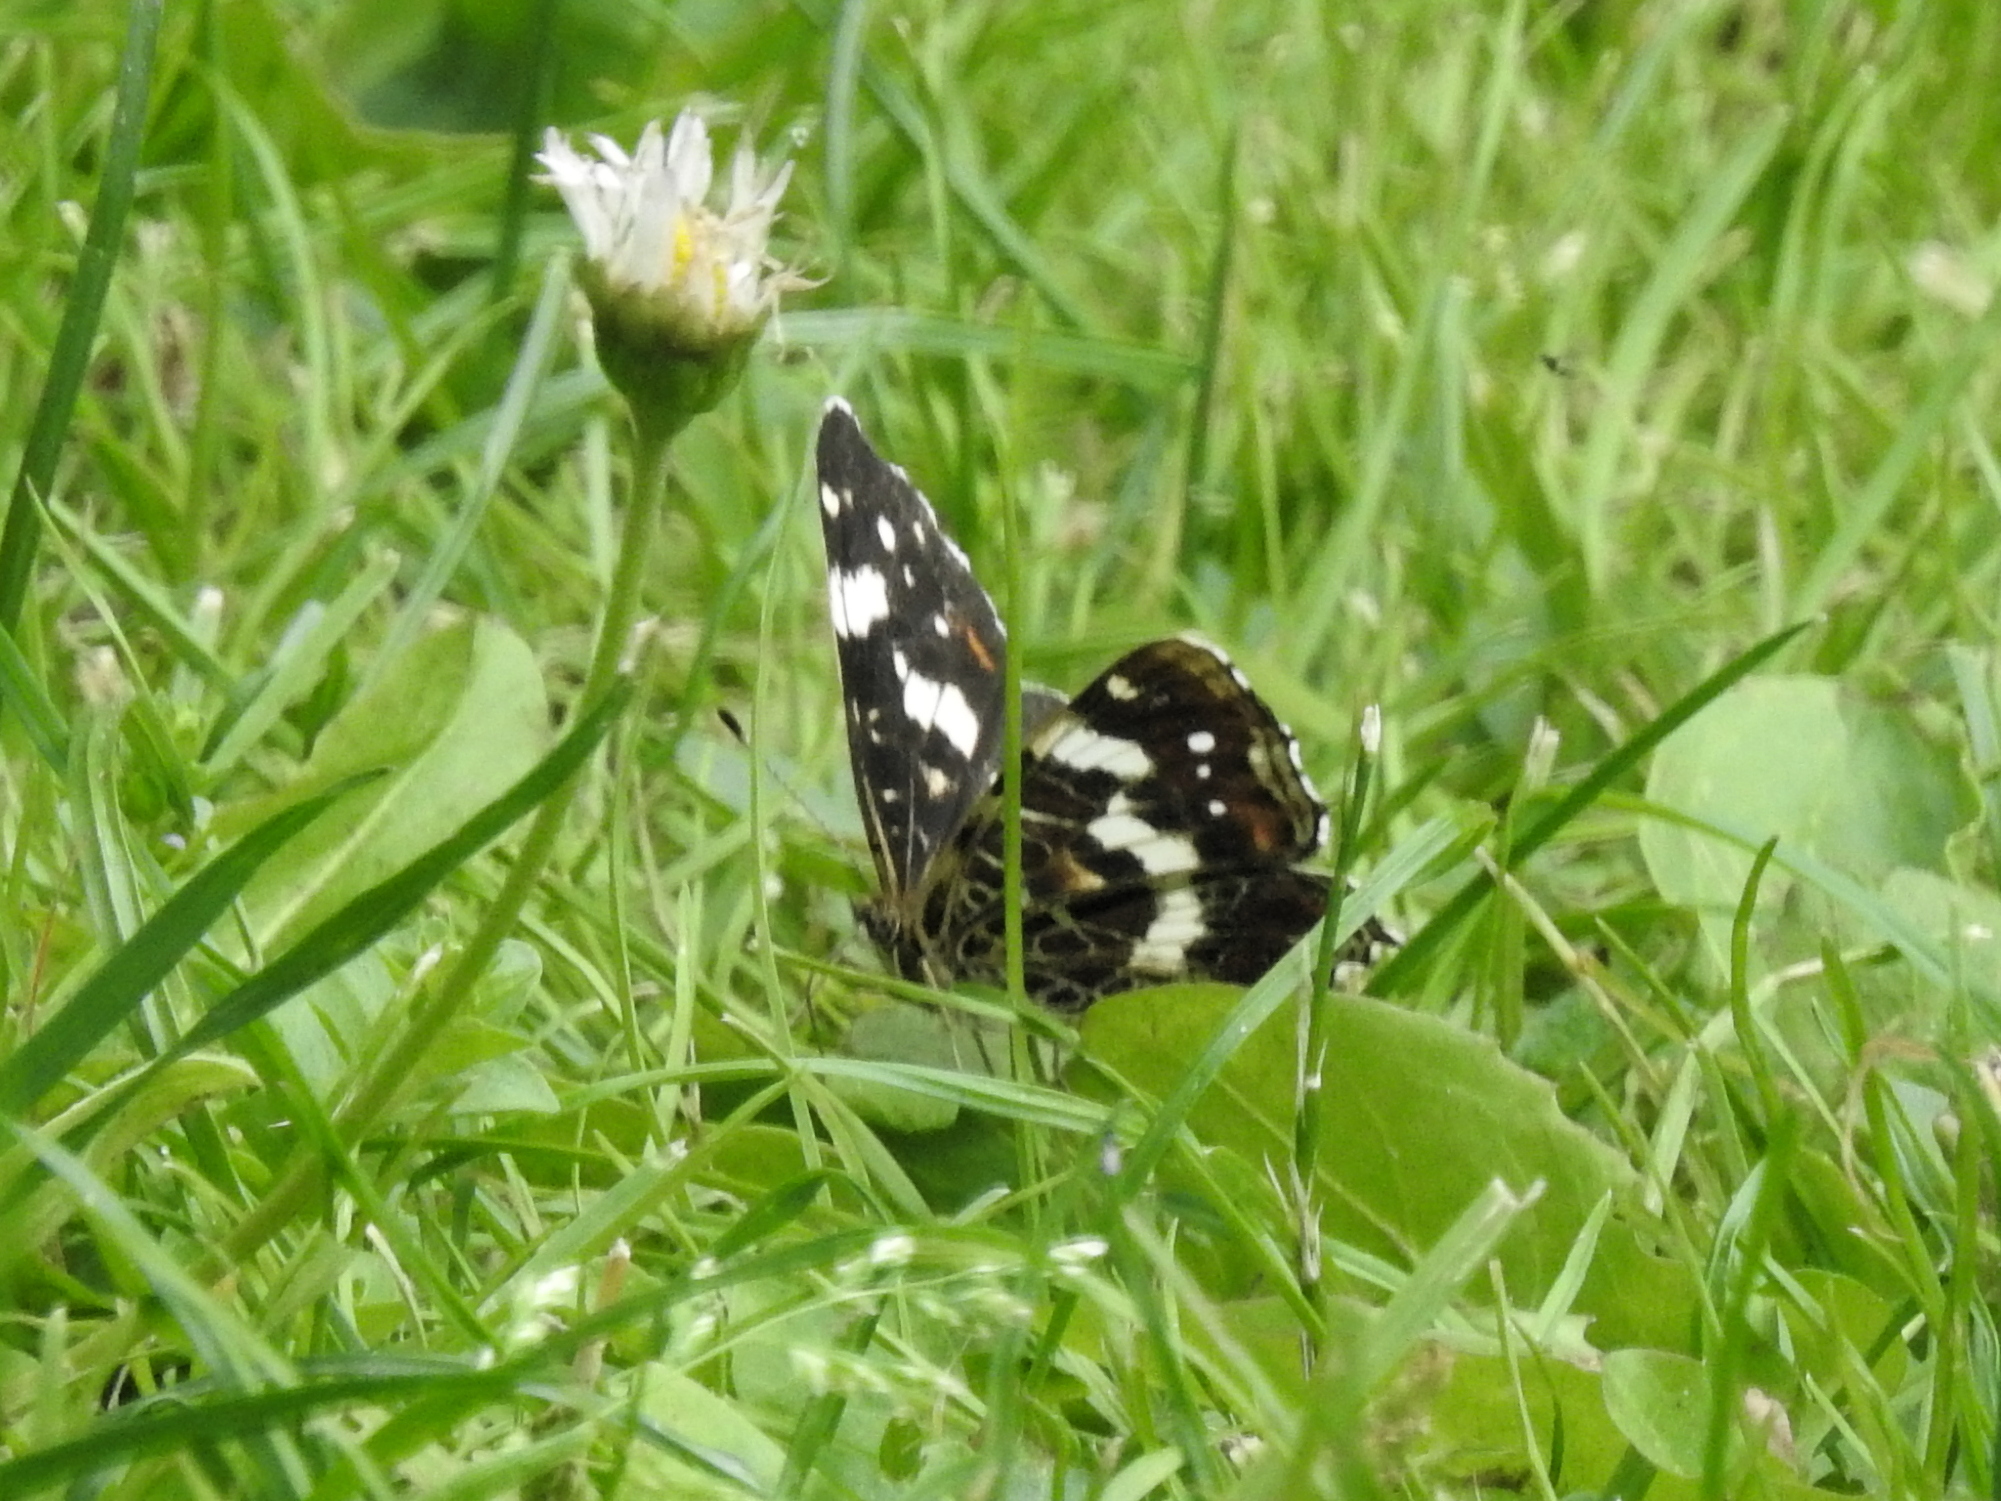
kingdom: Animalia
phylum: Arthropoda
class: Insecta
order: Lepidoptera
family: Nymphalidae
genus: Araschnia
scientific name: Araschnia levana
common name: Map butterfly
